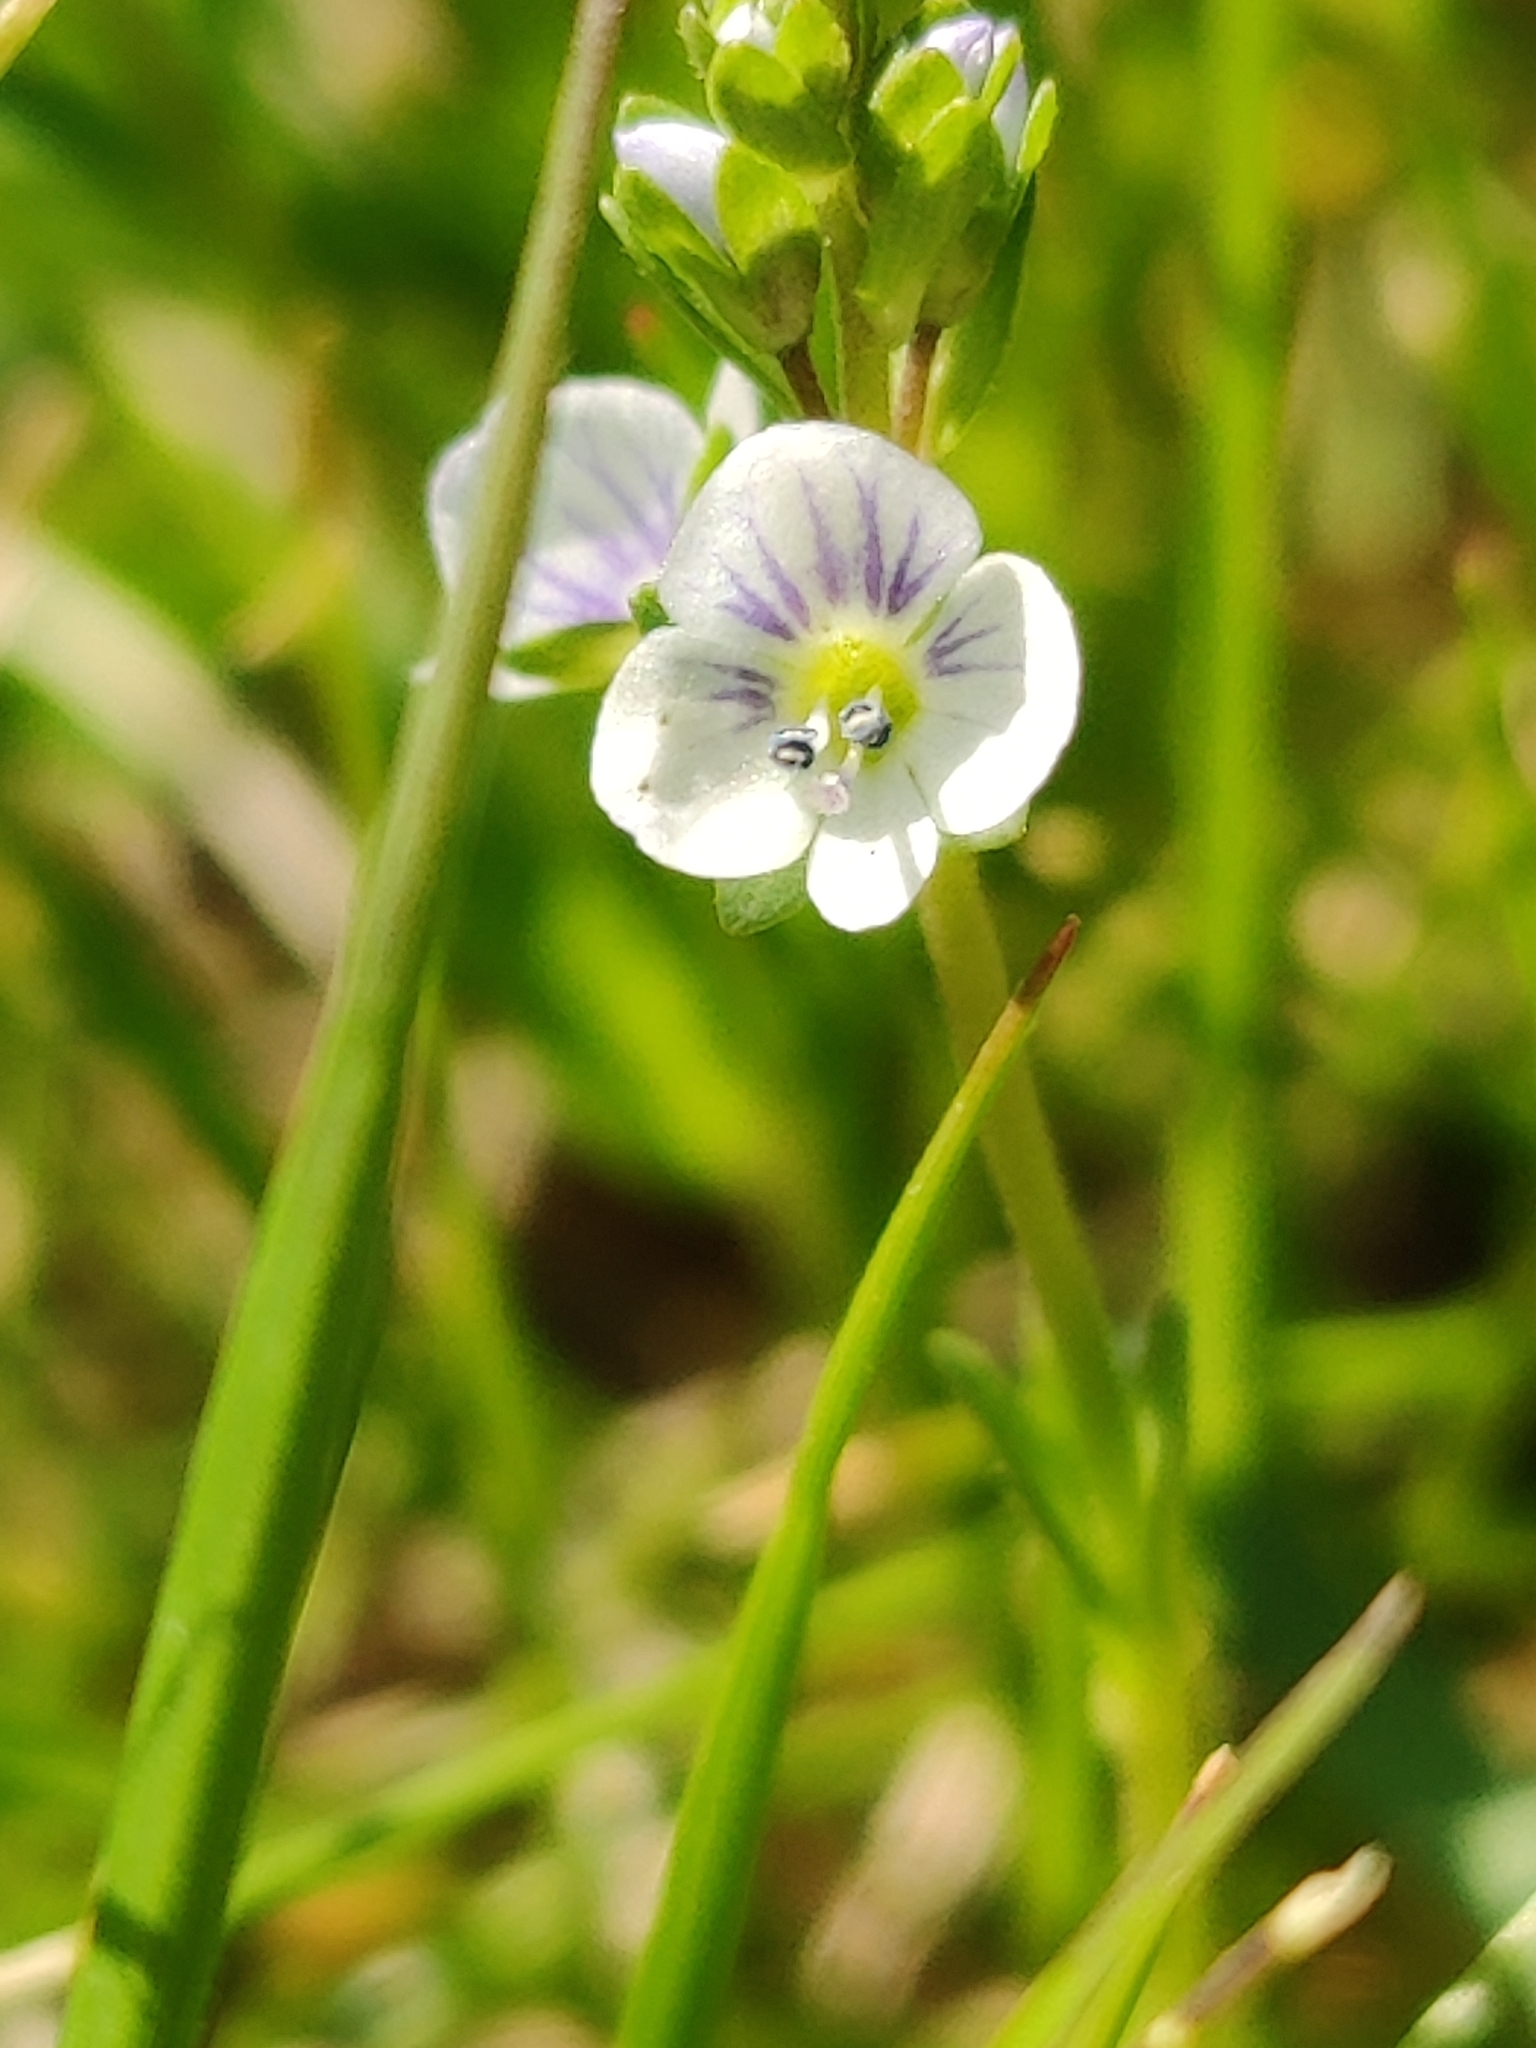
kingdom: Plantae
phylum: Tracheophyta
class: Magnoliopsida
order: Lamiales
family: Plantaginaceae
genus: Veronica
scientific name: Veronica serpyllifolia
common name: Thyme-leaved speedwell
